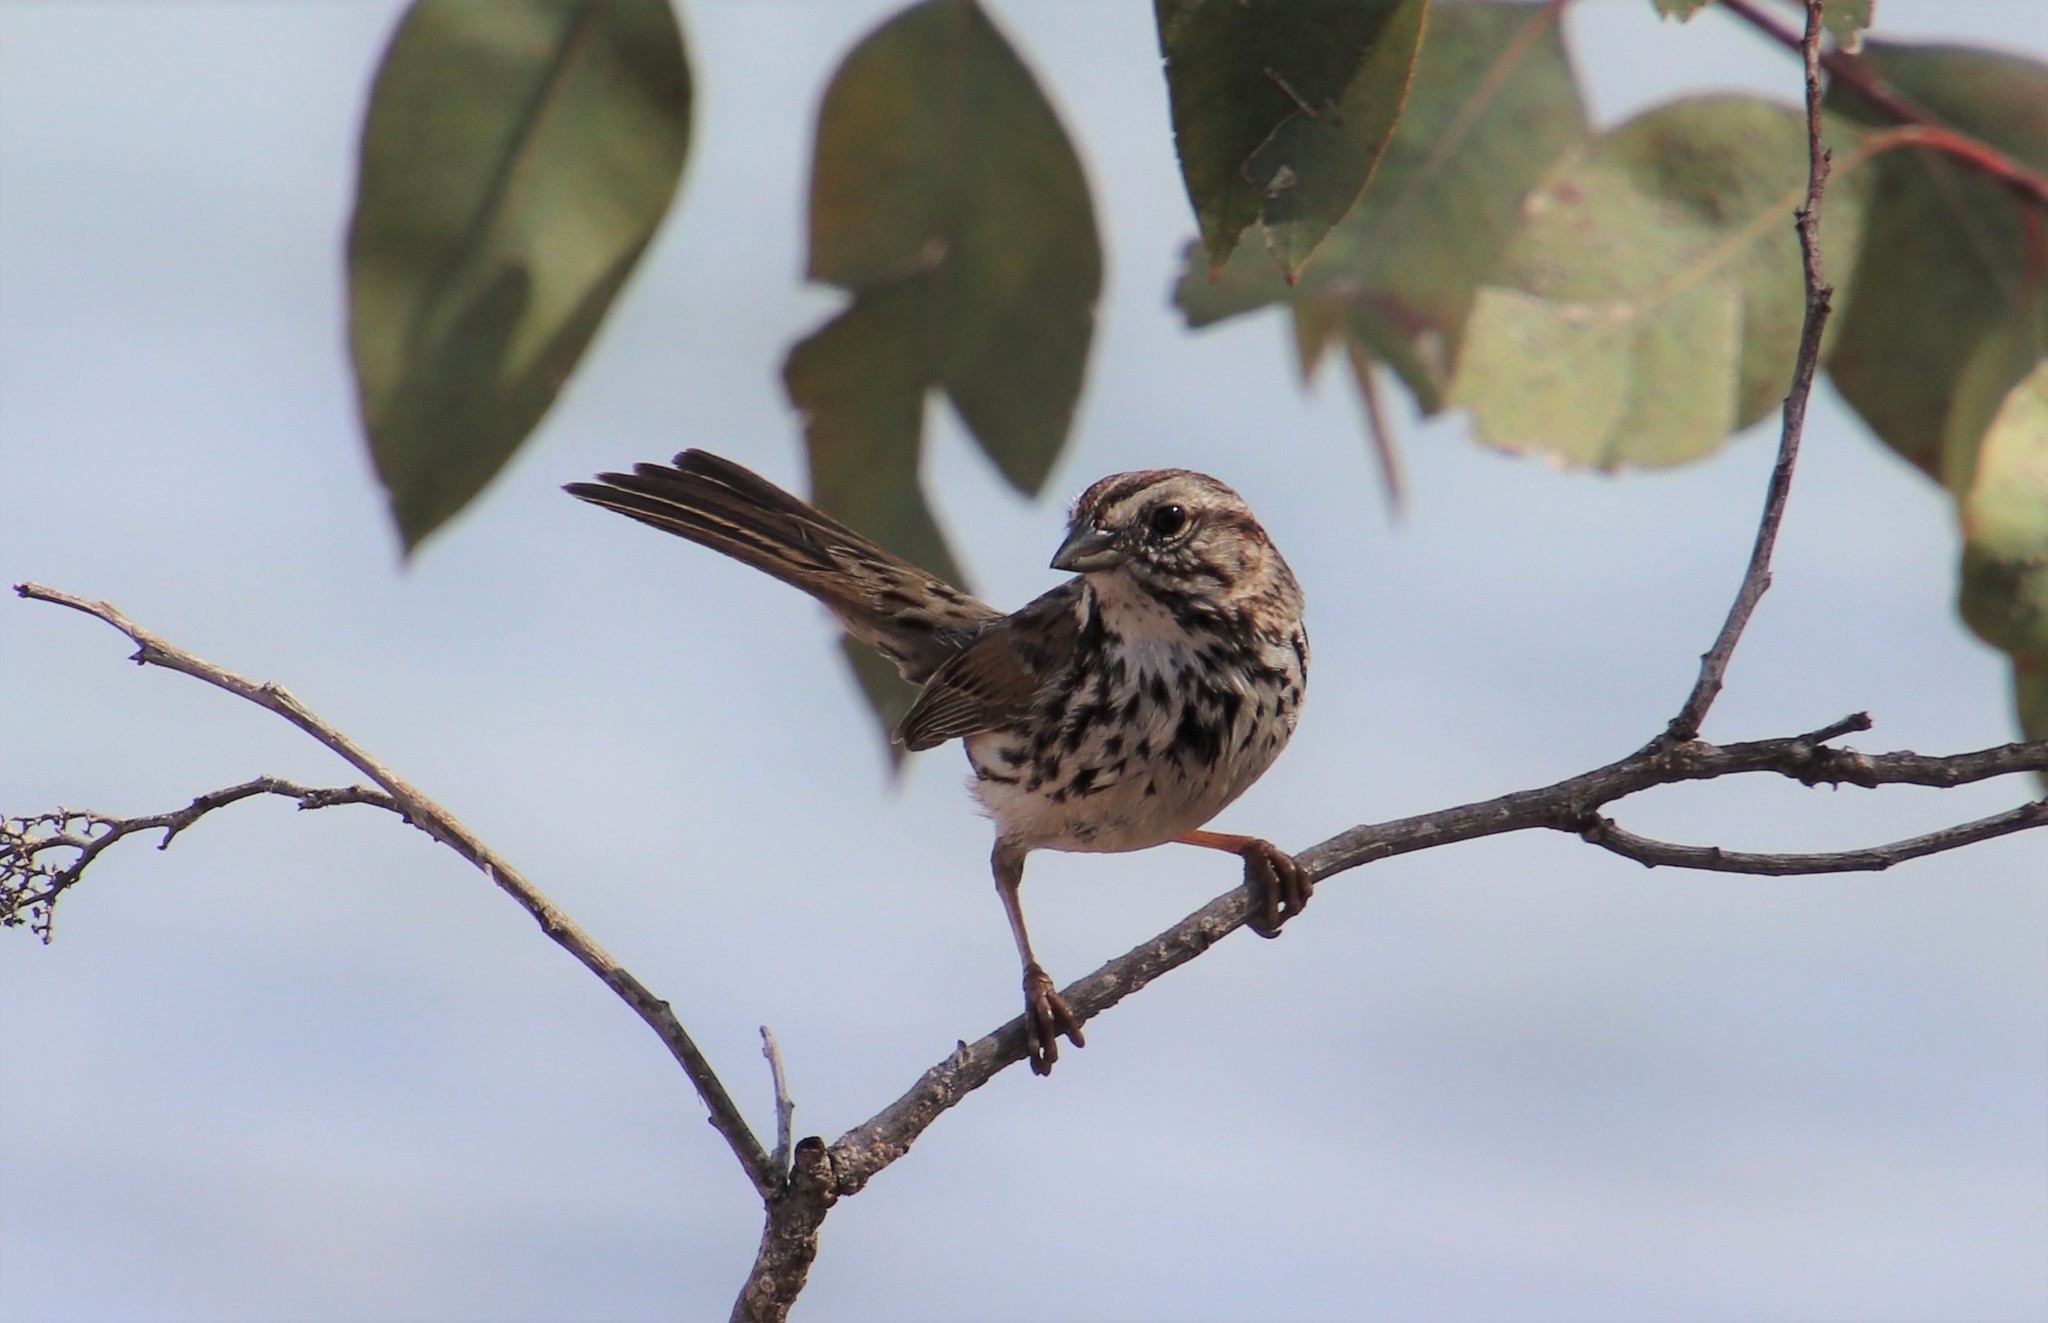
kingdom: Animalia
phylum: Chordata
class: Aves
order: Passeriformes
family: Passerellidae
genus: Melospiza
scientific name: Melospiza melodia
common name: Song sparrow
